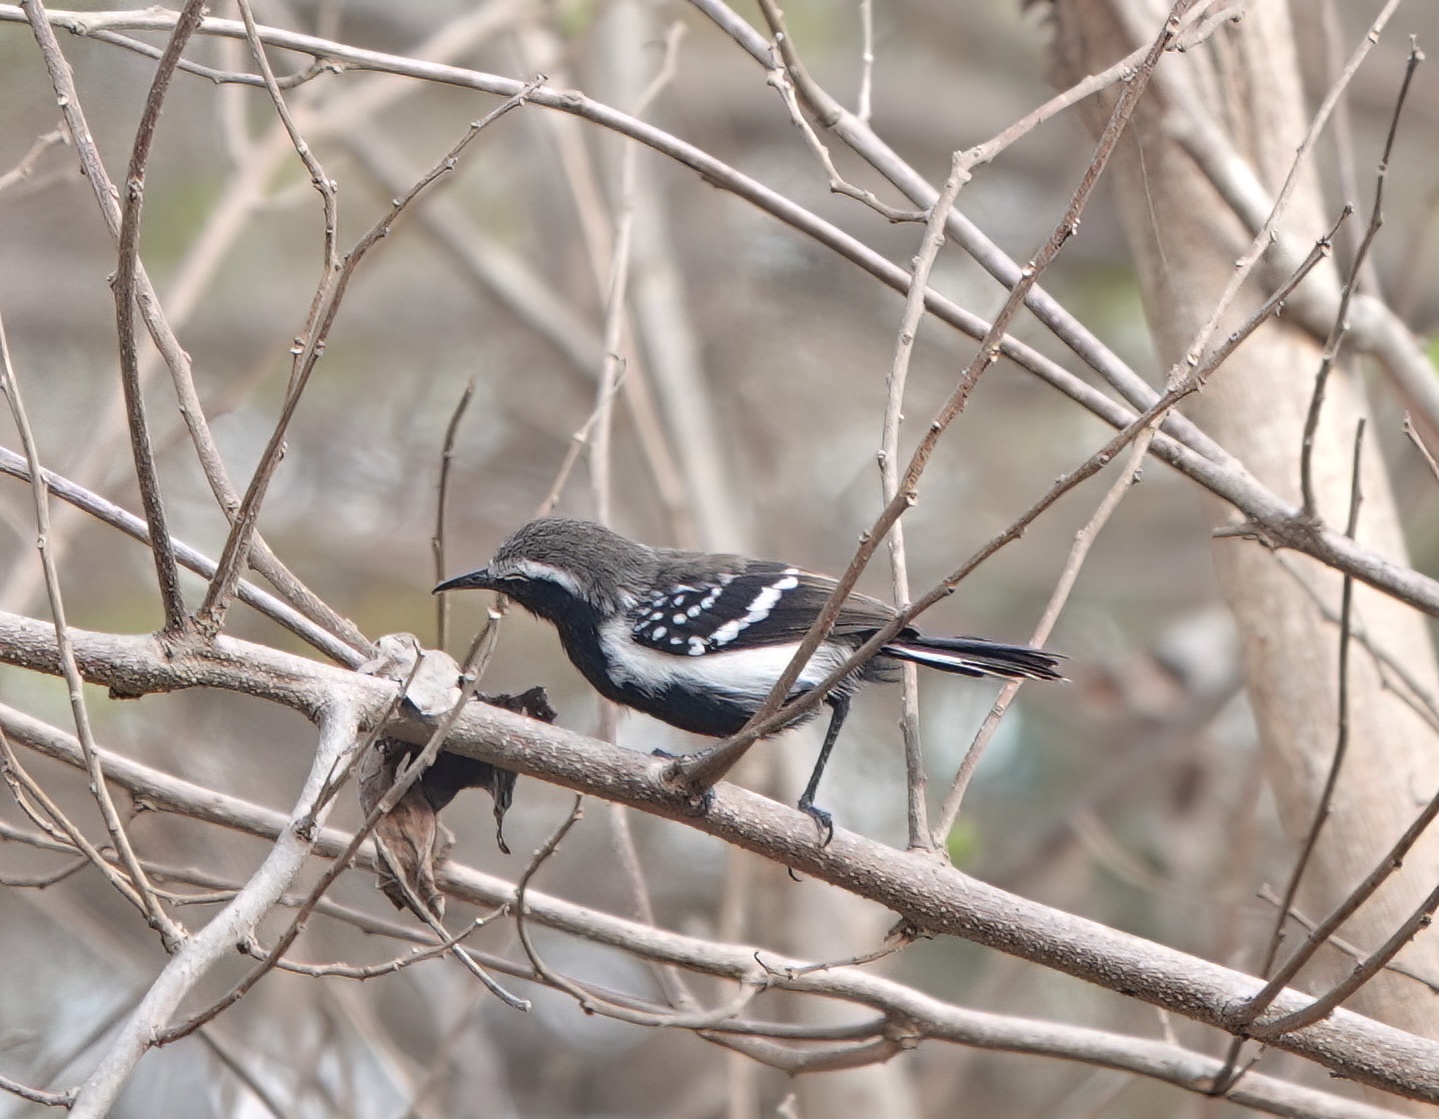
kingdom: Animalia
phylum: Chordata
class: Aves
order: Passeriformes
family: Thamnophilidae
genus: Formicivora
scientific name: Formicivora intermedia
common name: Northern white-fringed antwren
